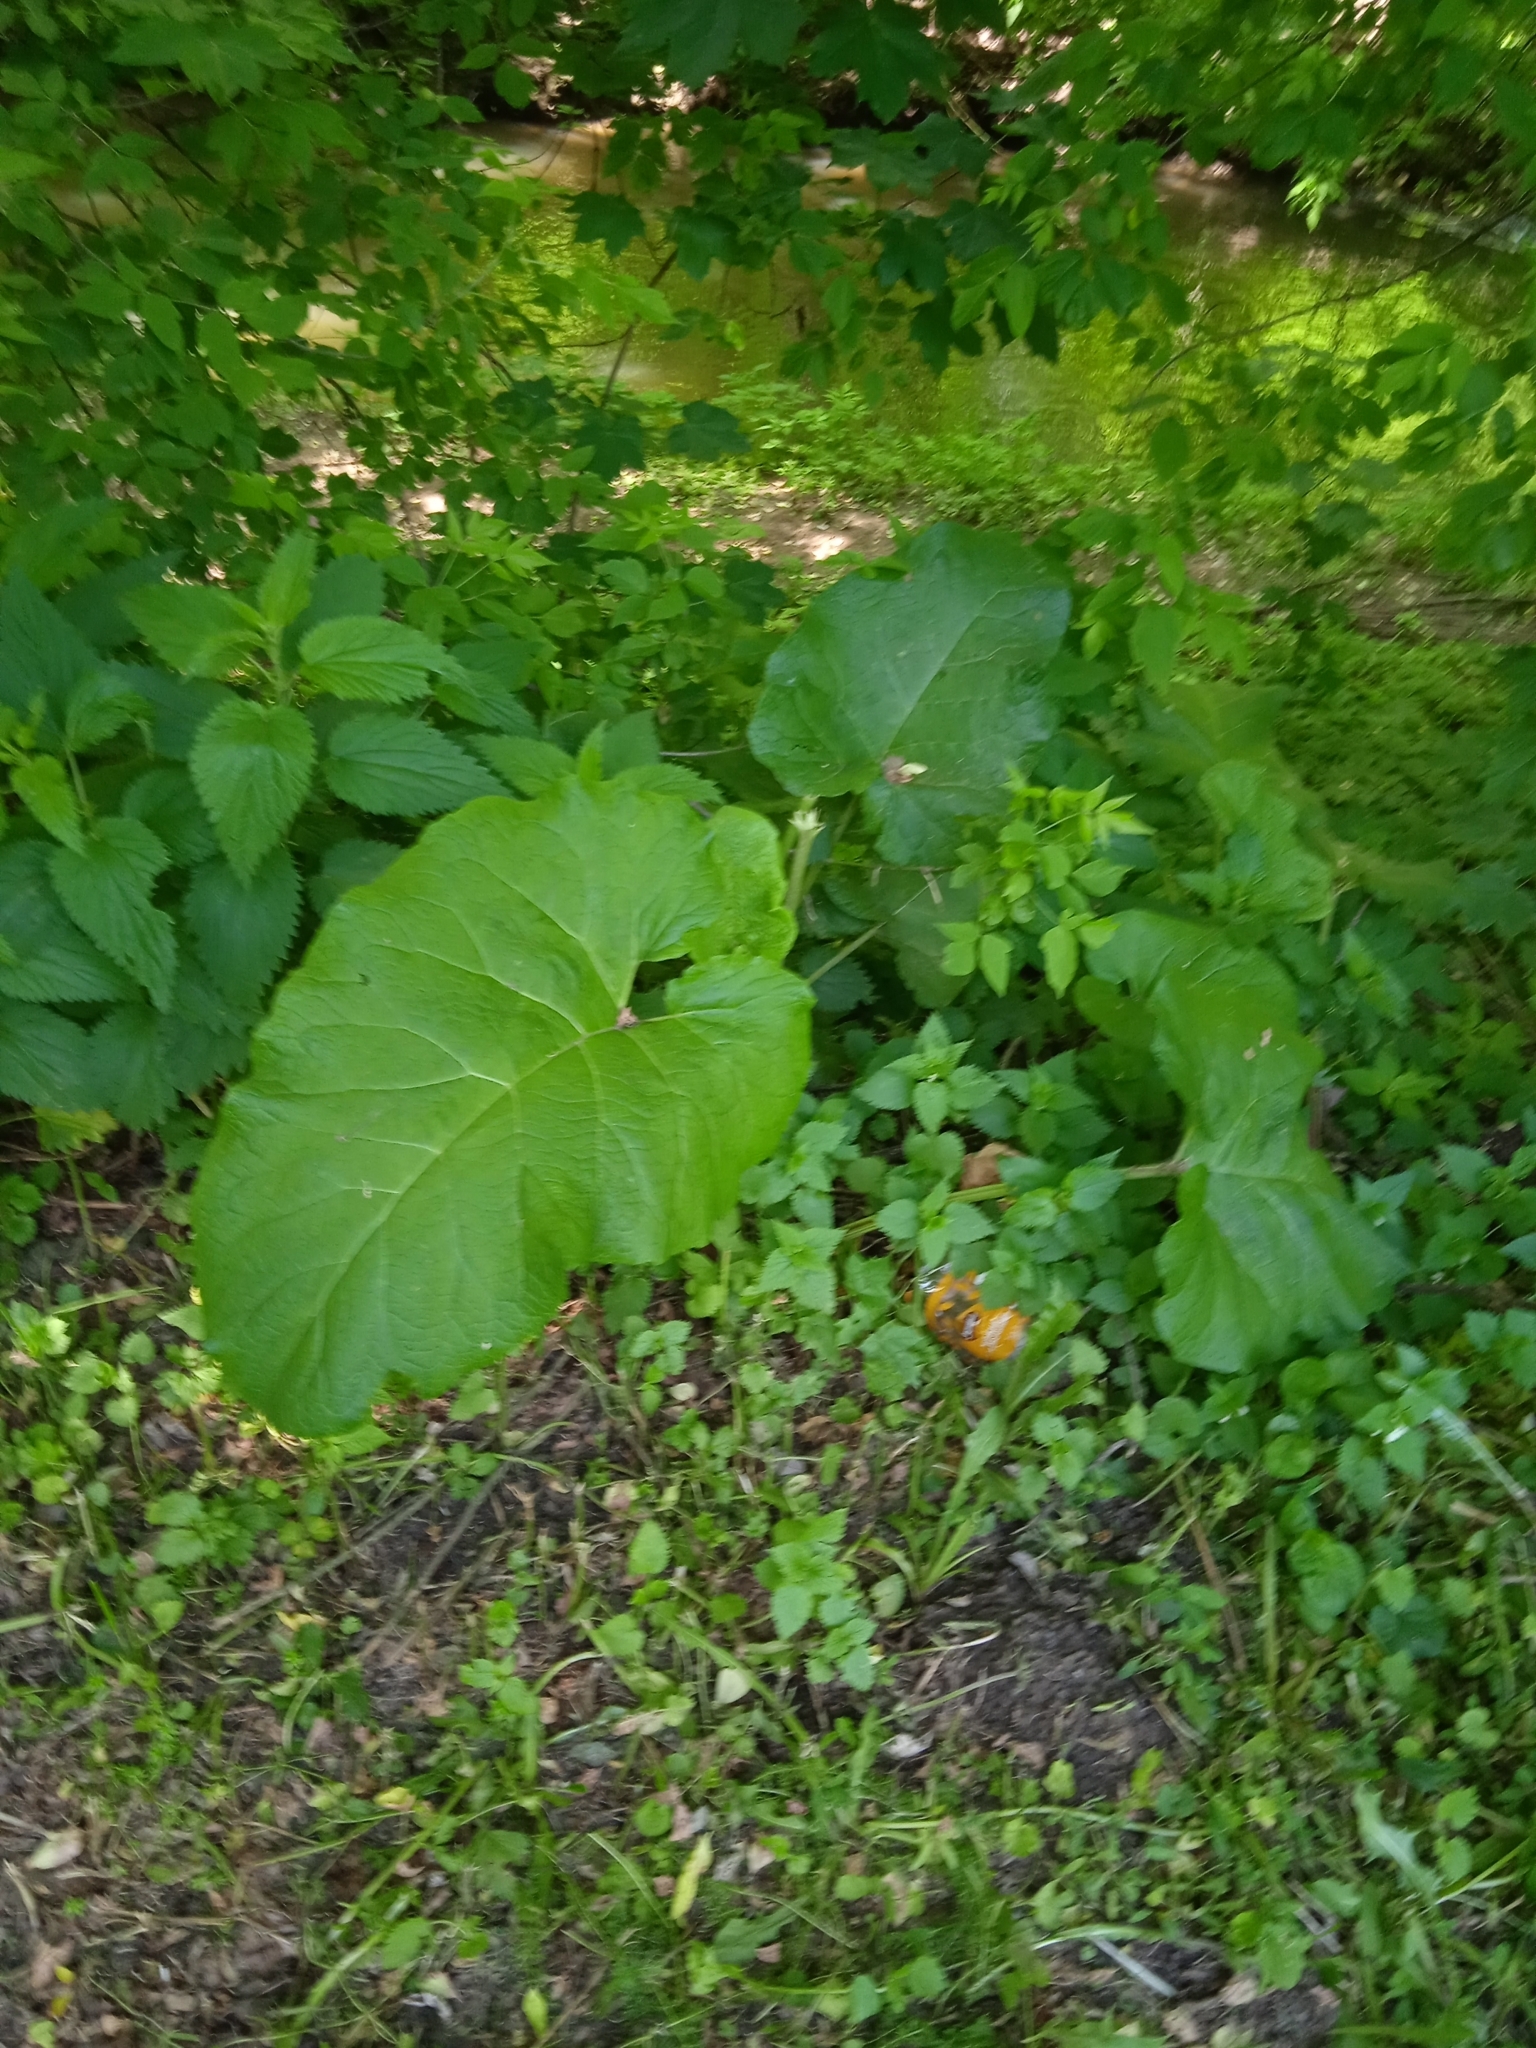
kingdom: Plantae
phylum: Tracheophyta
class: Magnoliopsida
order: Asterales
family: Asteraceae
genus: Arctium
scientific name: Arctium
